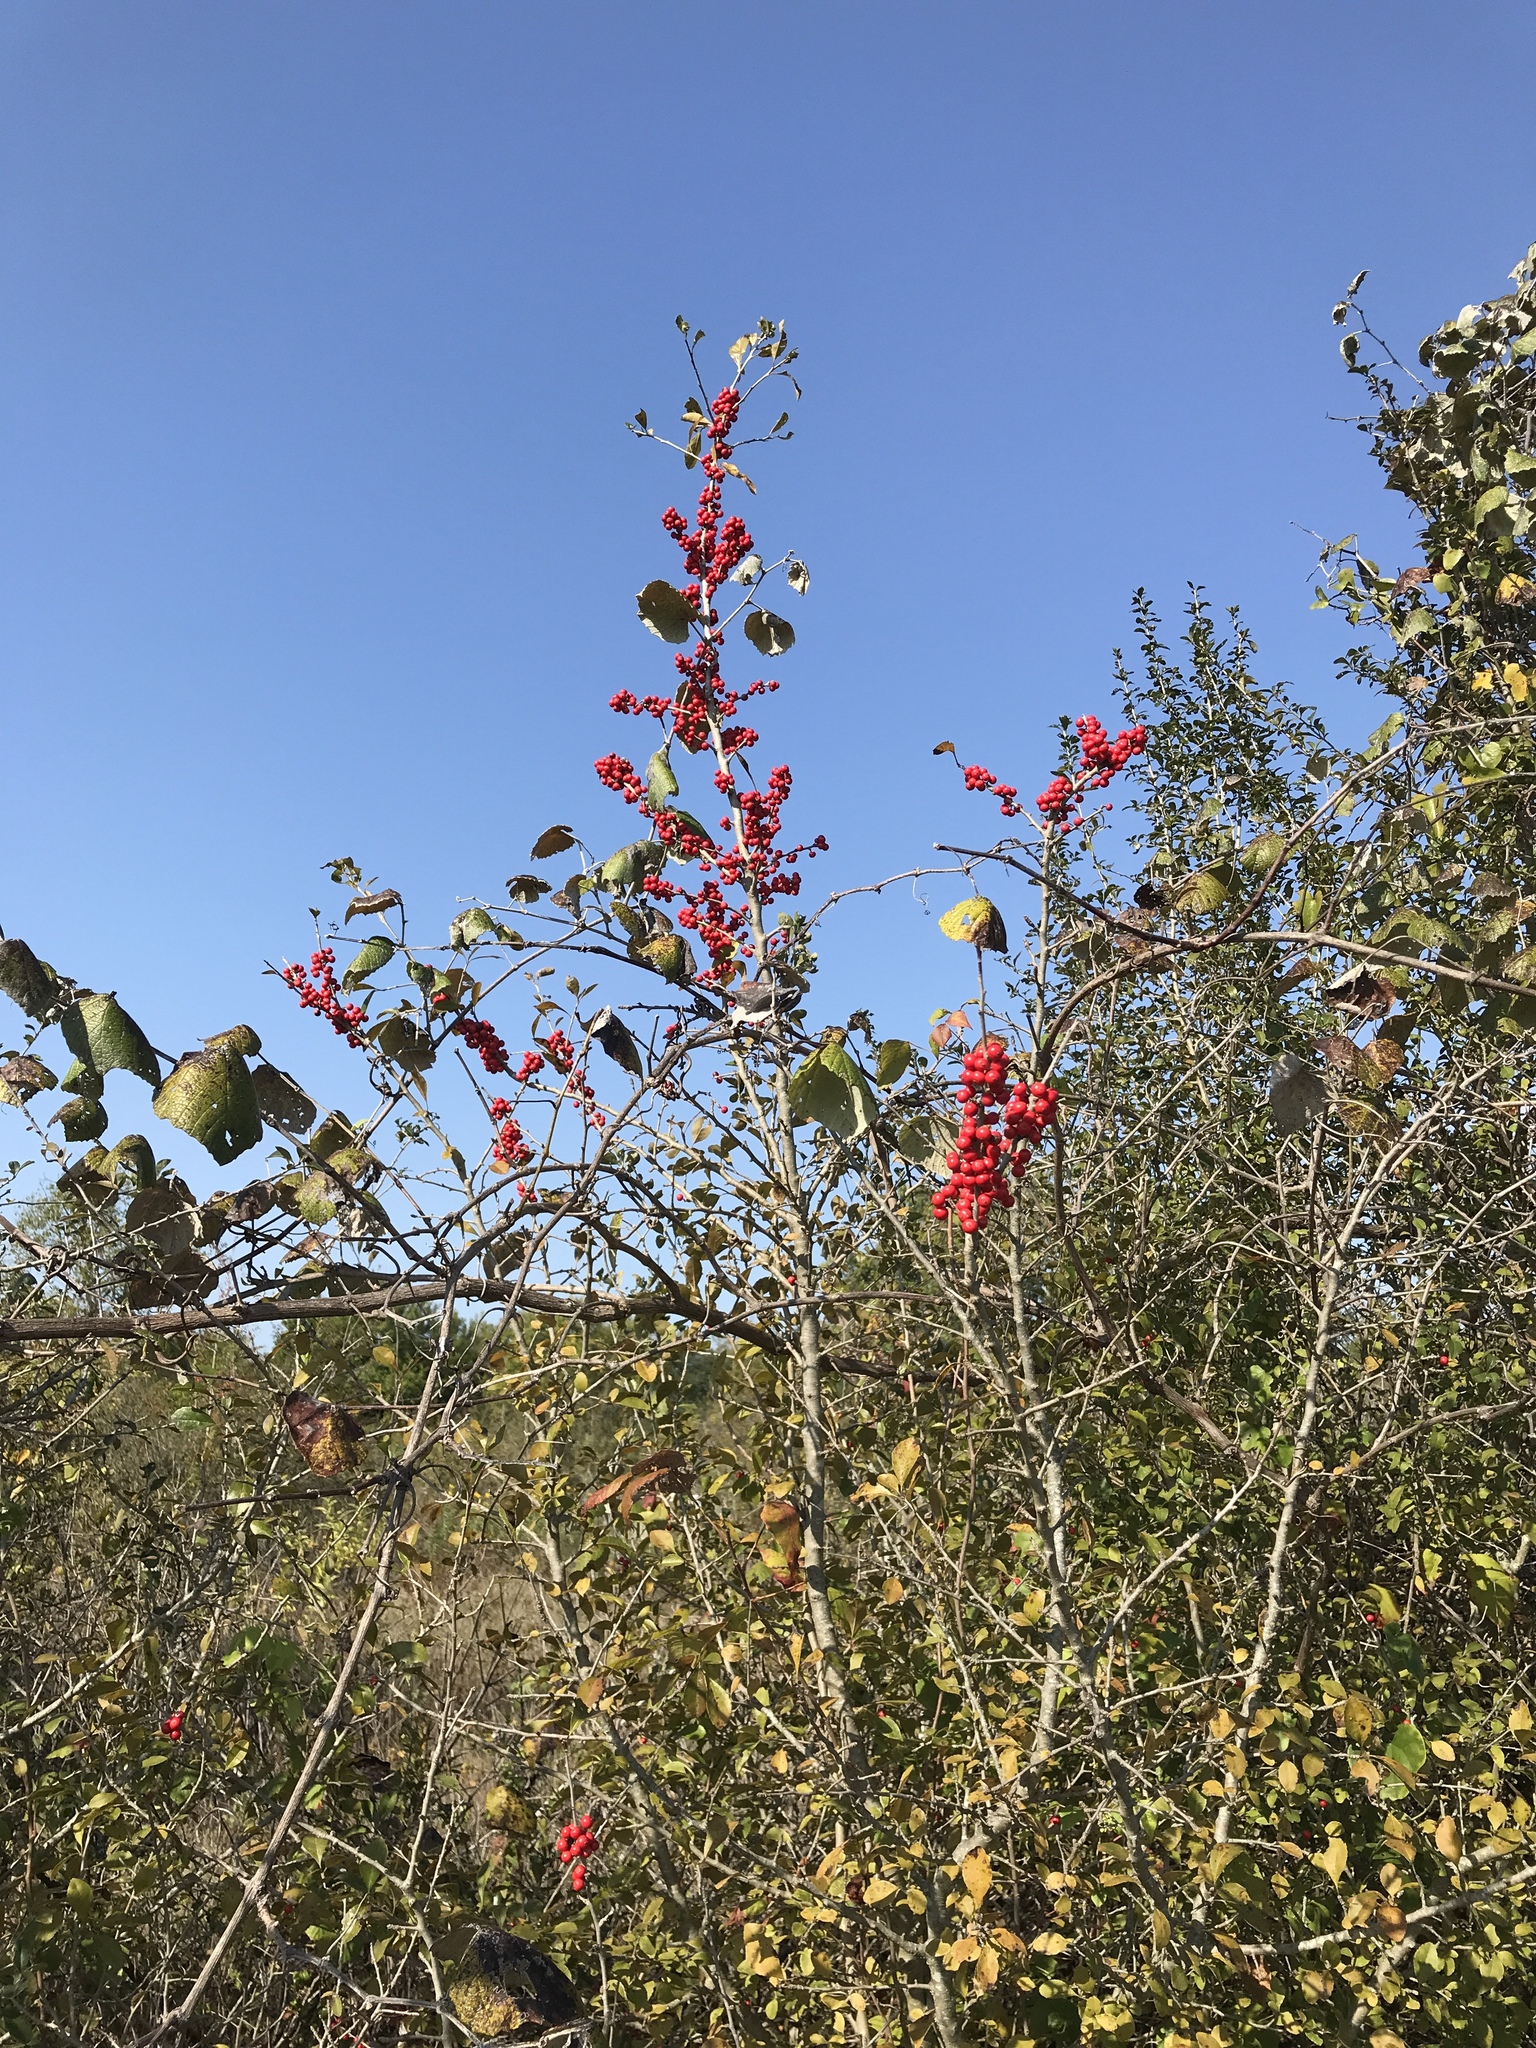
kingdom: Plantae
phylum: Tracheophyta
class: Magnoliopsida
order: Aquifoliales
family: Aquifoliaceae
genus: Ilex
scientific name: Ilex decidua
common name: Possum-haw
